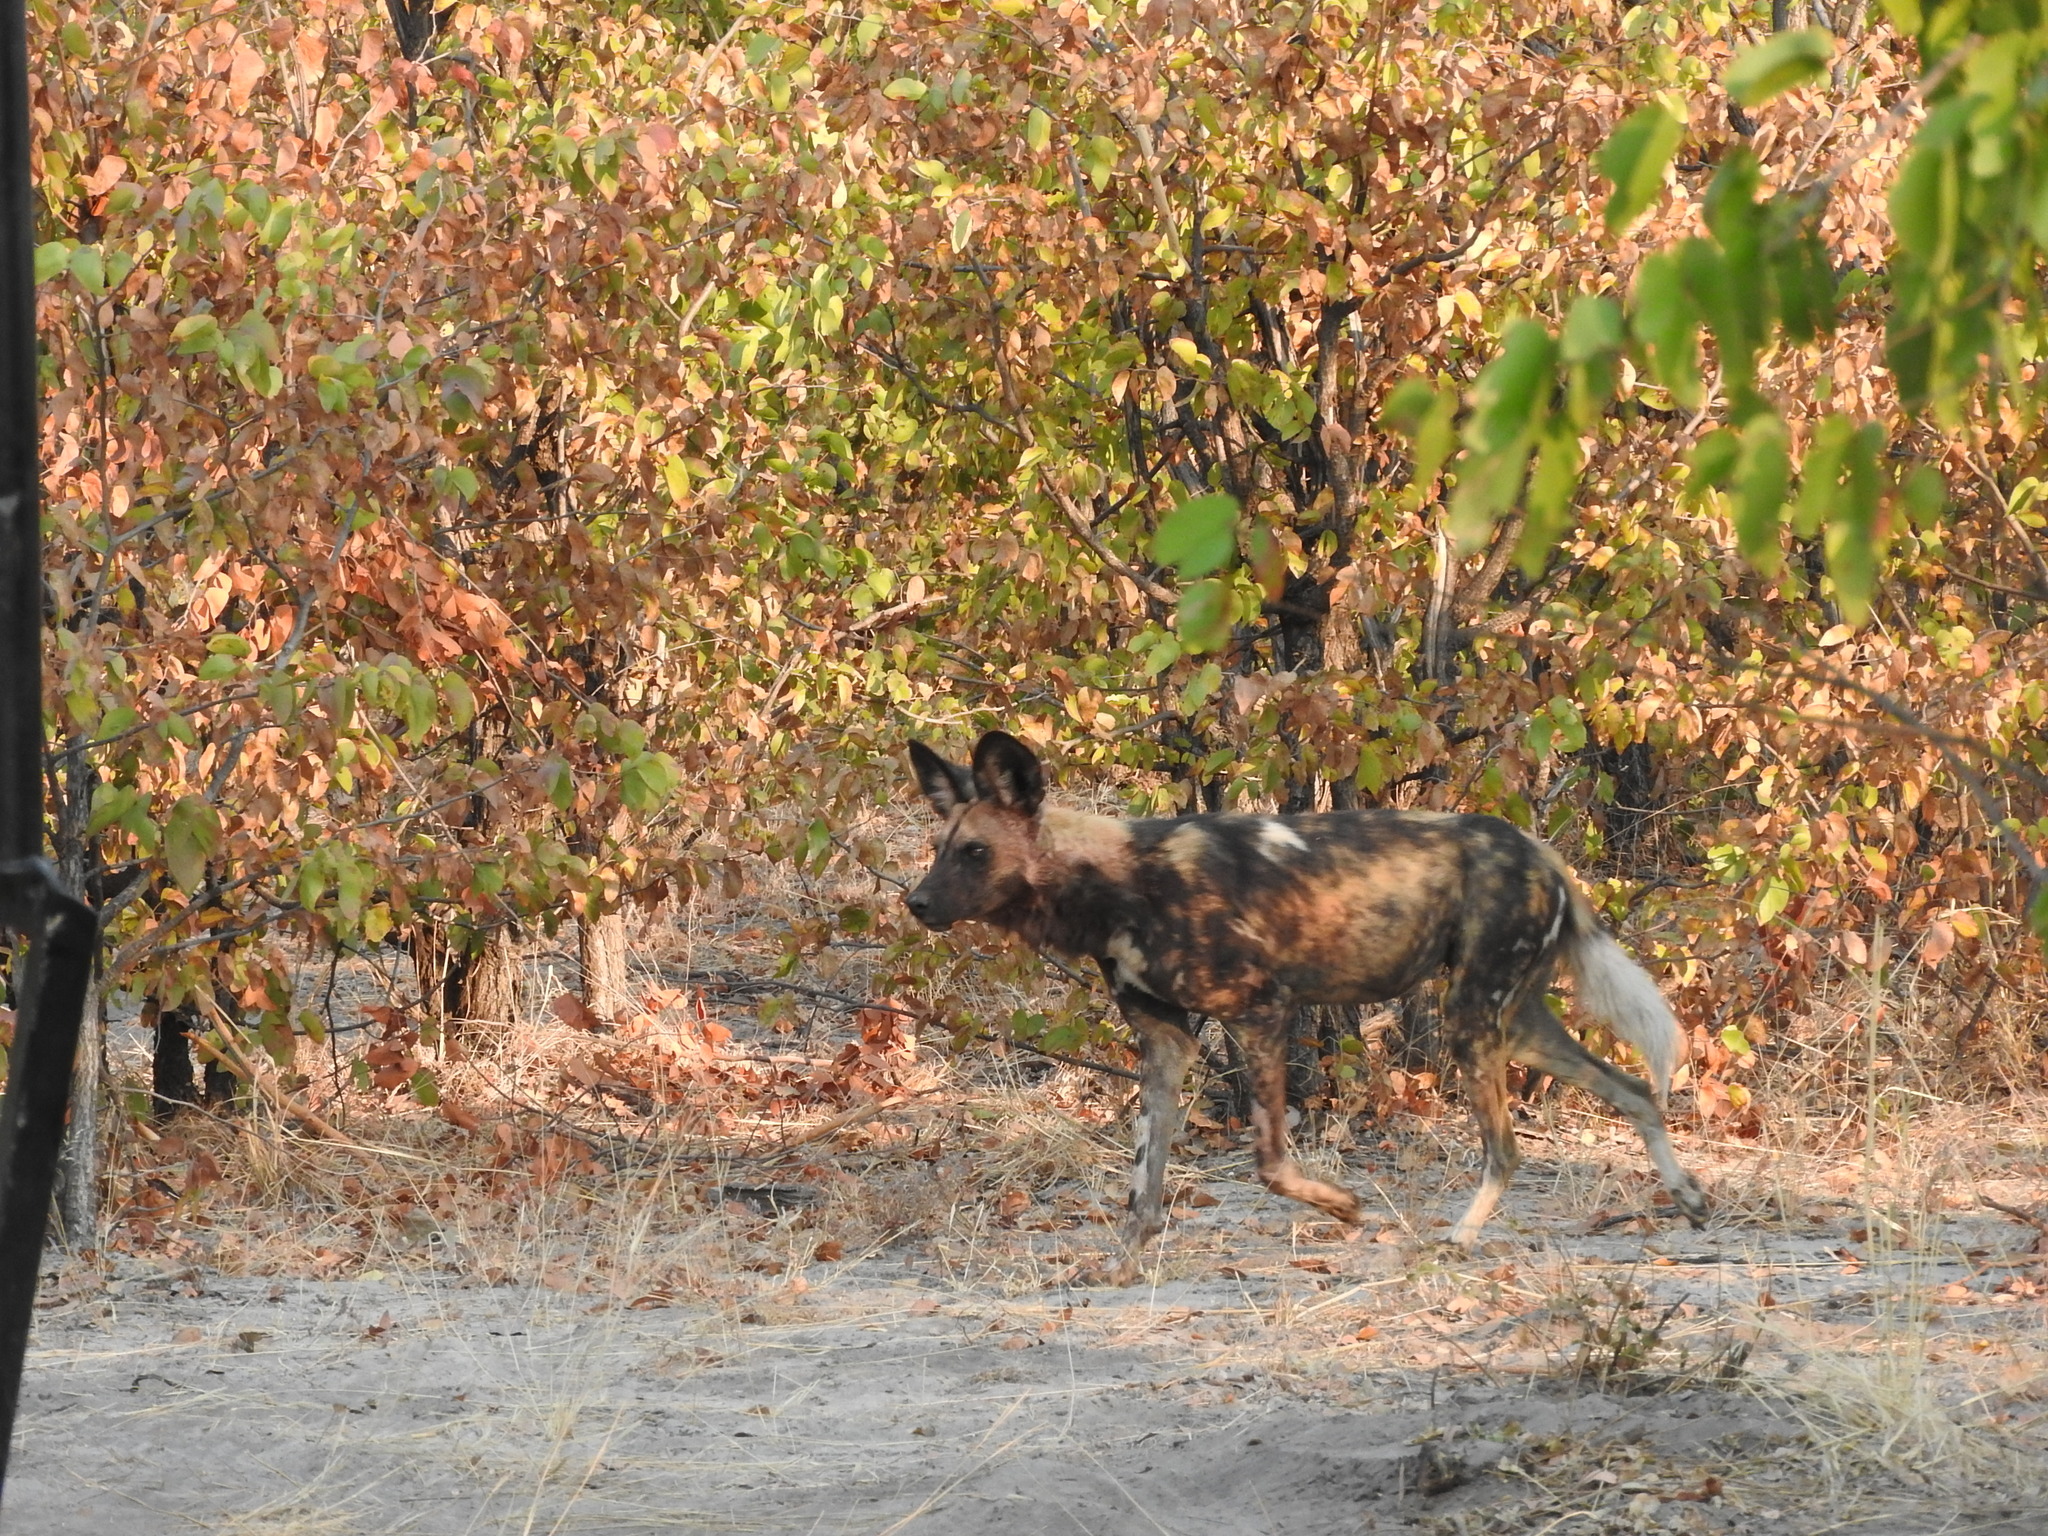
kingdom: Animalia
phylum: Chordata
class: Mammalia
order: Carnivora
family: Canidae
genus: Lycaon
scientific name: Lycaon pictus
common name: African wild dog
